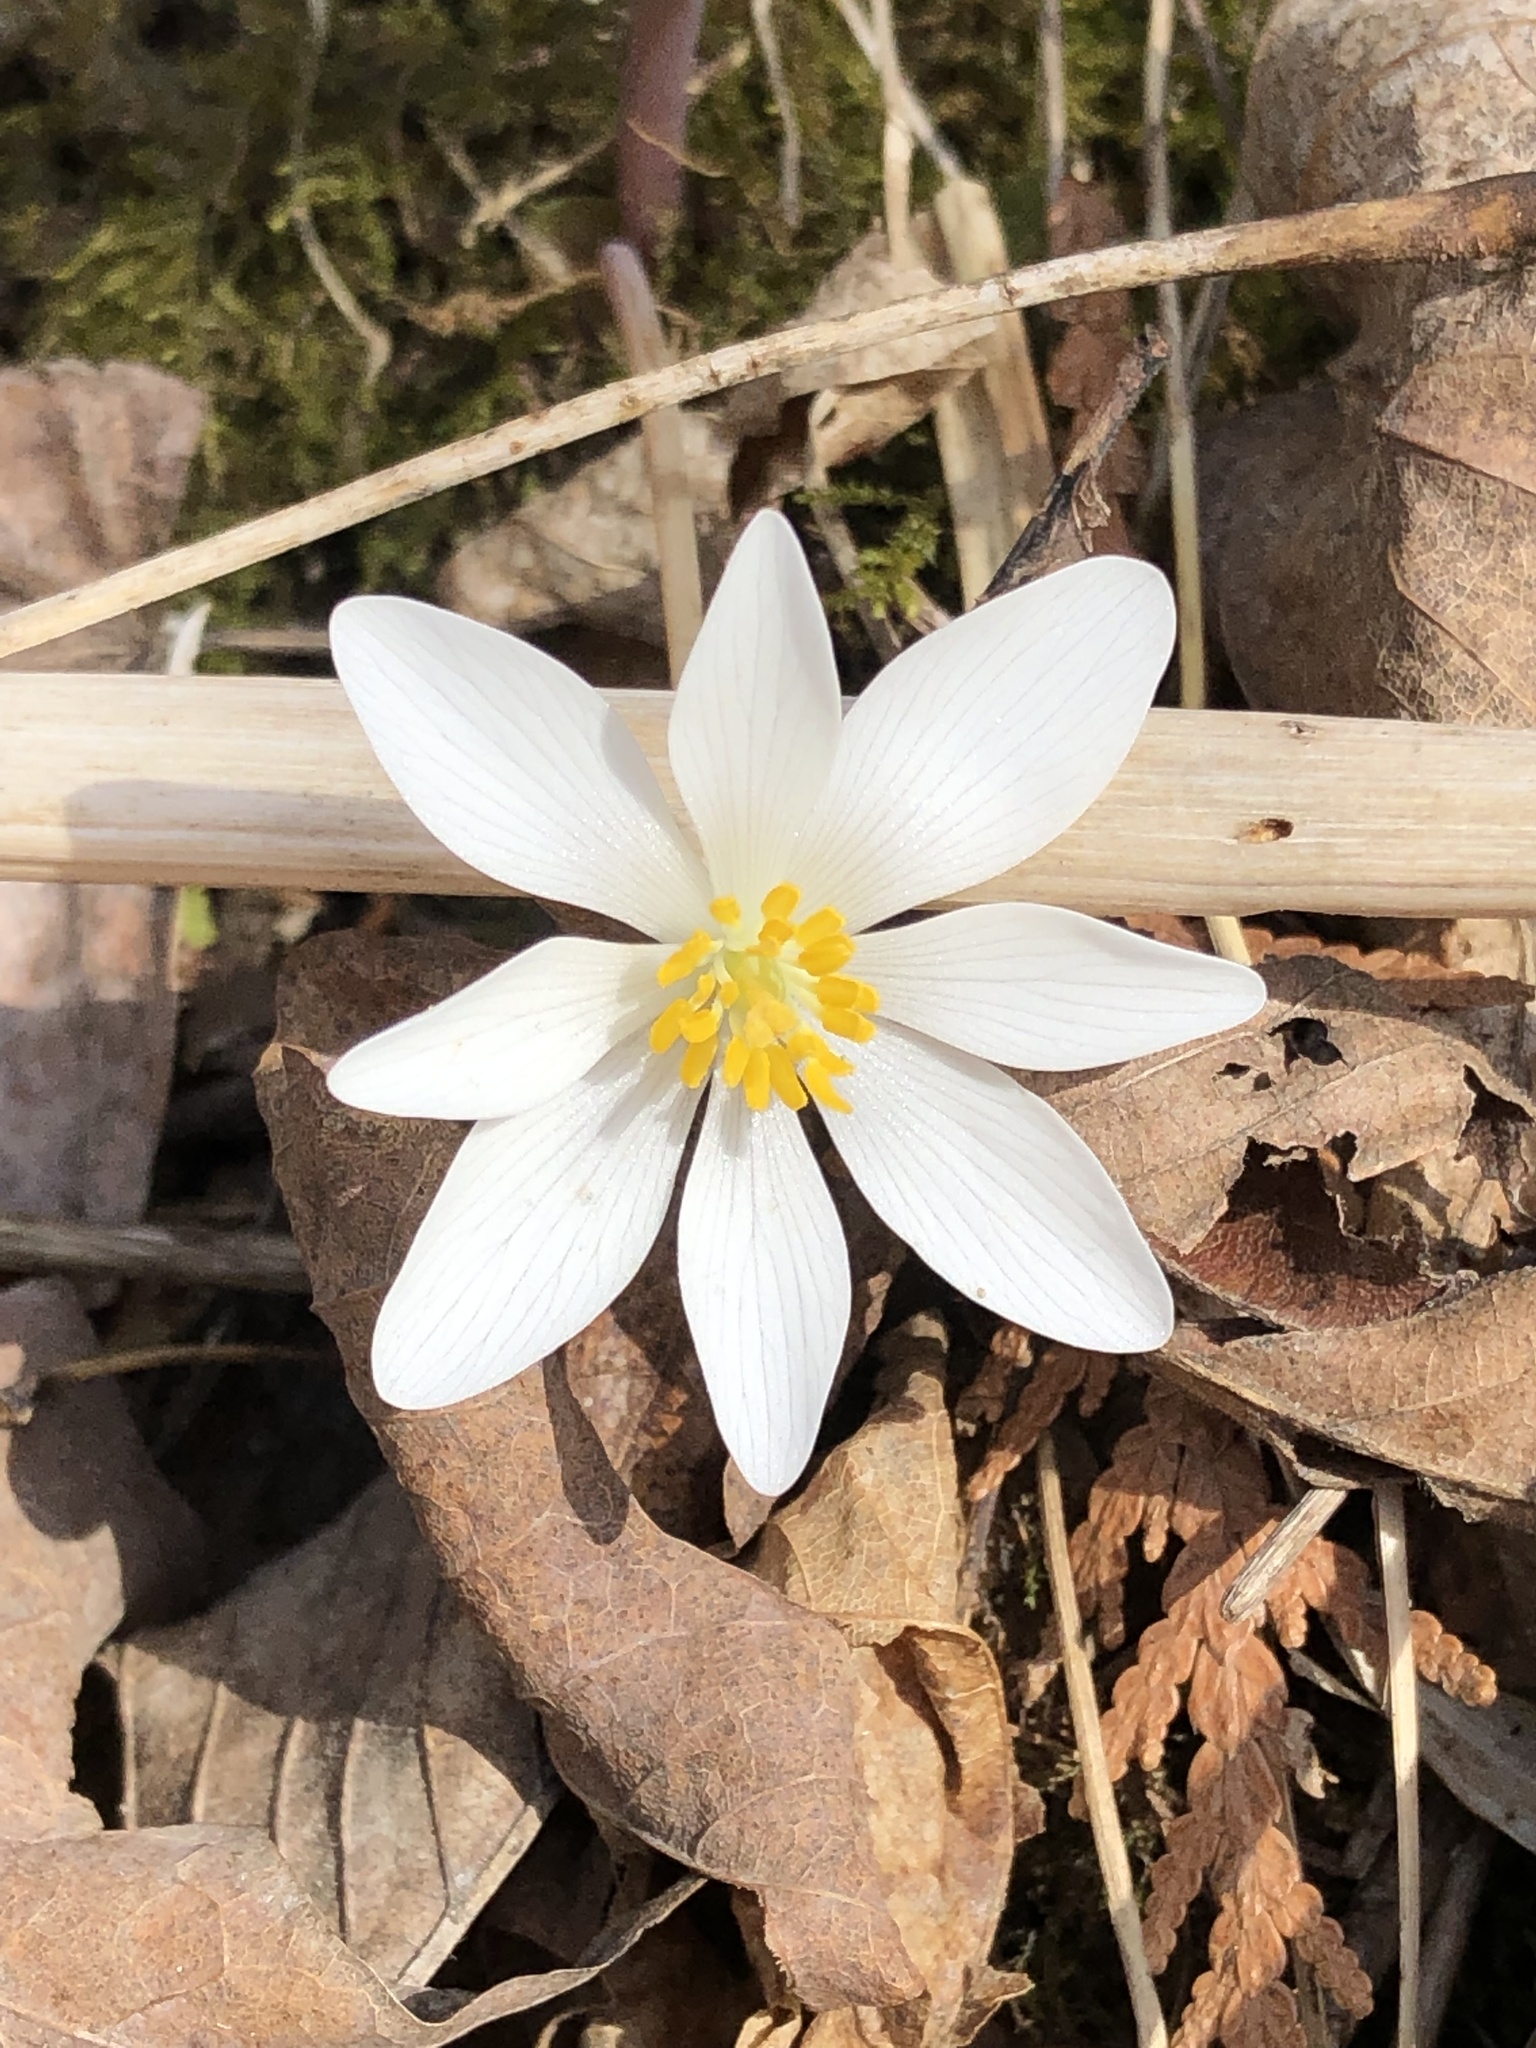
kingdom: Plantae
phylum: Tracheophyta
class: Magnoliopsida
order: Ranunculales
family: Papaveraceae
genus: Sanguinaria
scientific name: Sanguinaria canadensis
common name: Bloodroot
